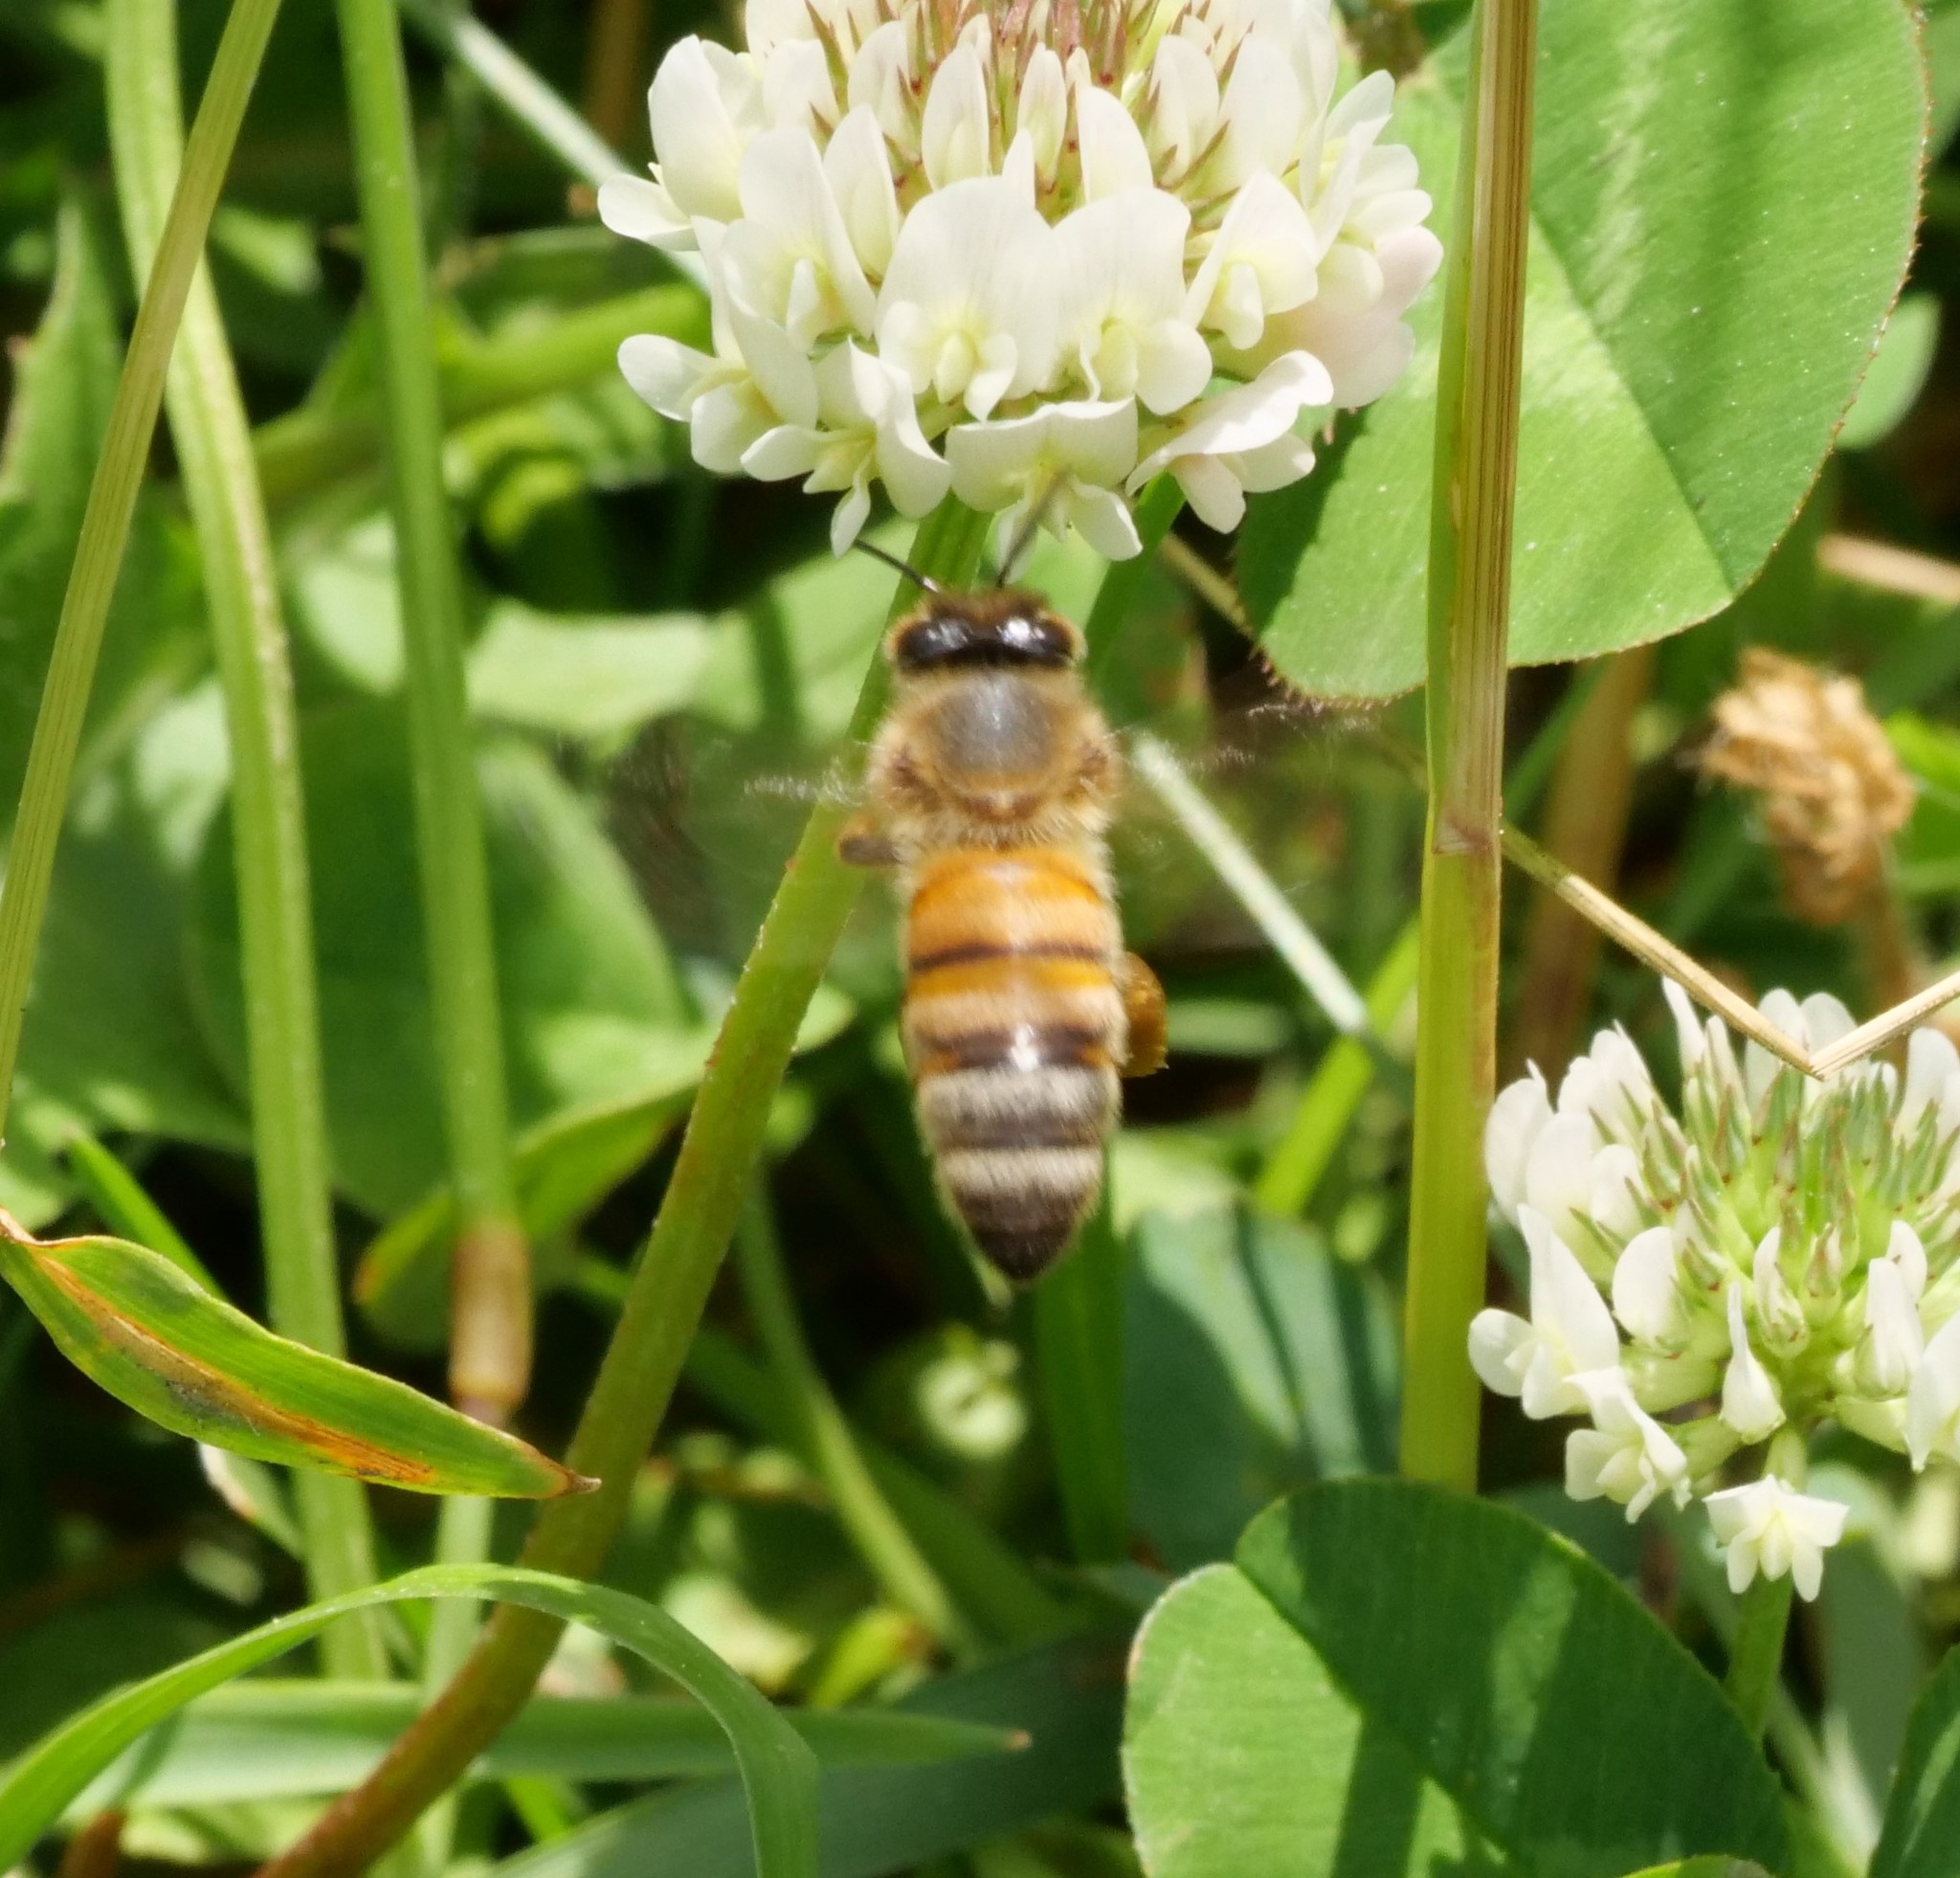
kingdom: Animalia
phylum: Arthropoda
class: Insecta
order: Hymenoptera
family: Apidae
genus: Apis
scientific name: Apis mellifera
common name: Honey bee
